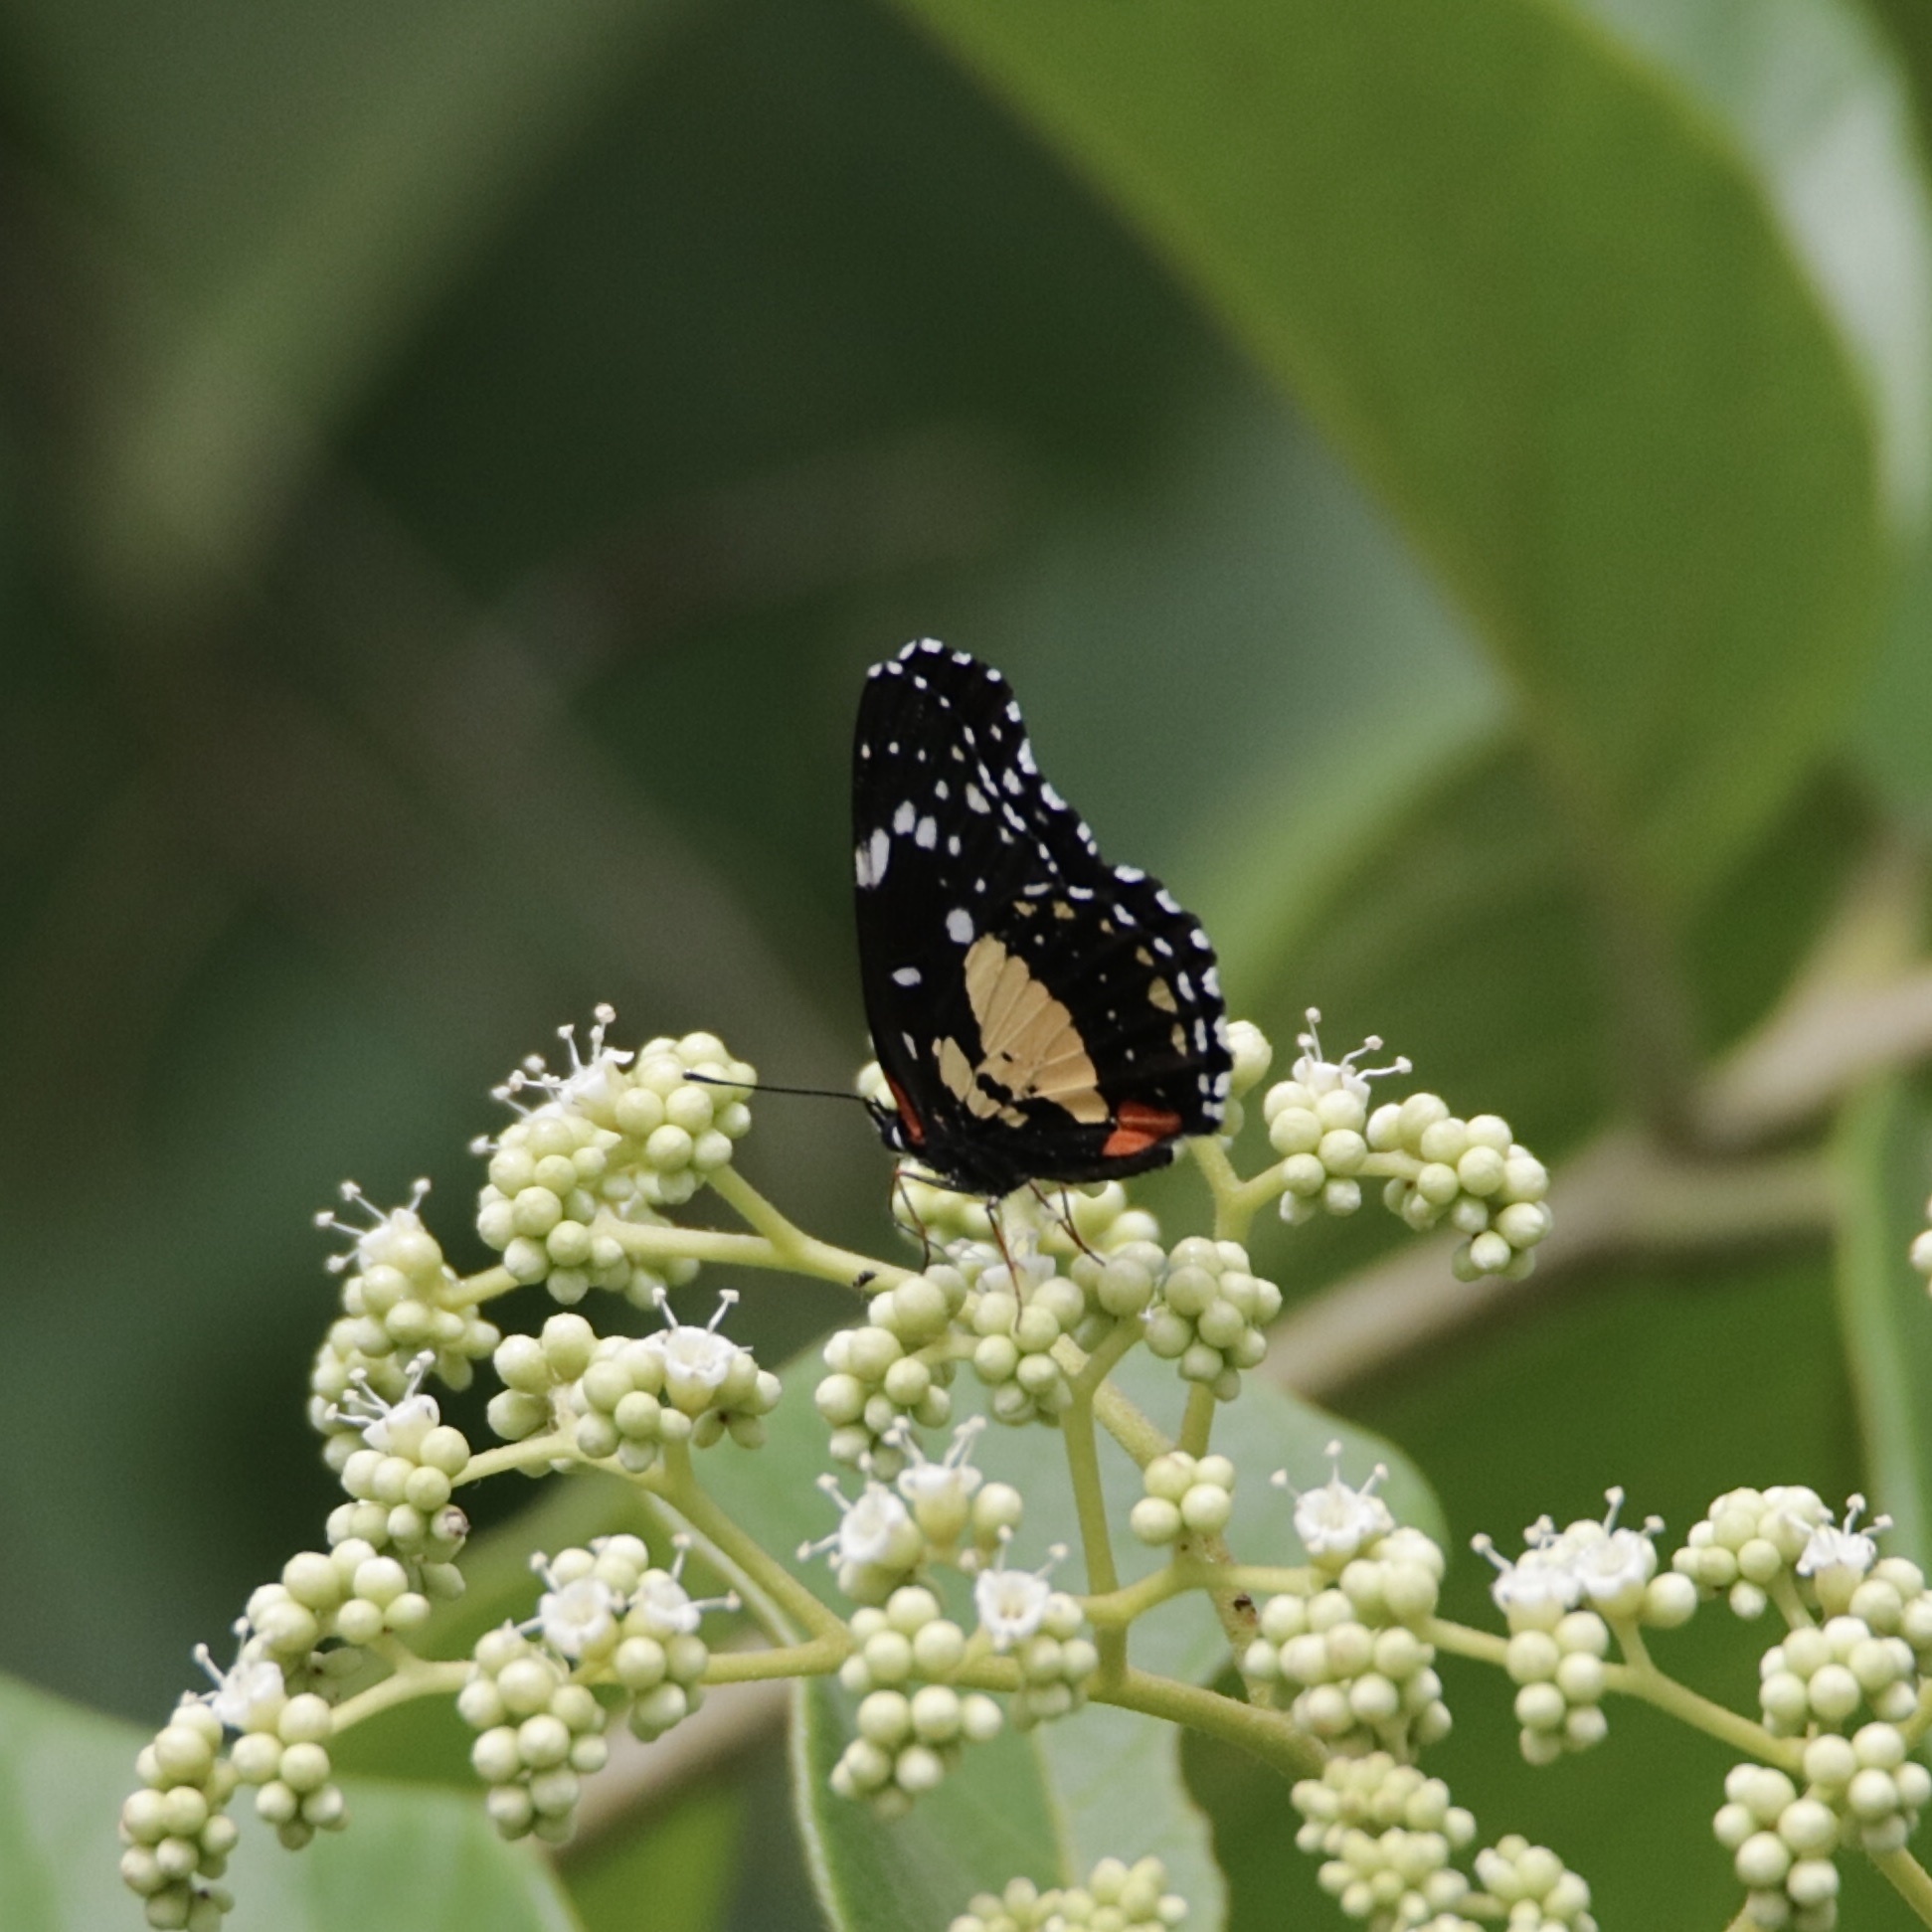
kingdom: Animalia
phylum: Arthropoda
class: Insecta
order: Lepidoptera
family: Nymphalidae
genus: Chlosyne
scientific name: Chlosyne lacinia
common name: Bordered patch
